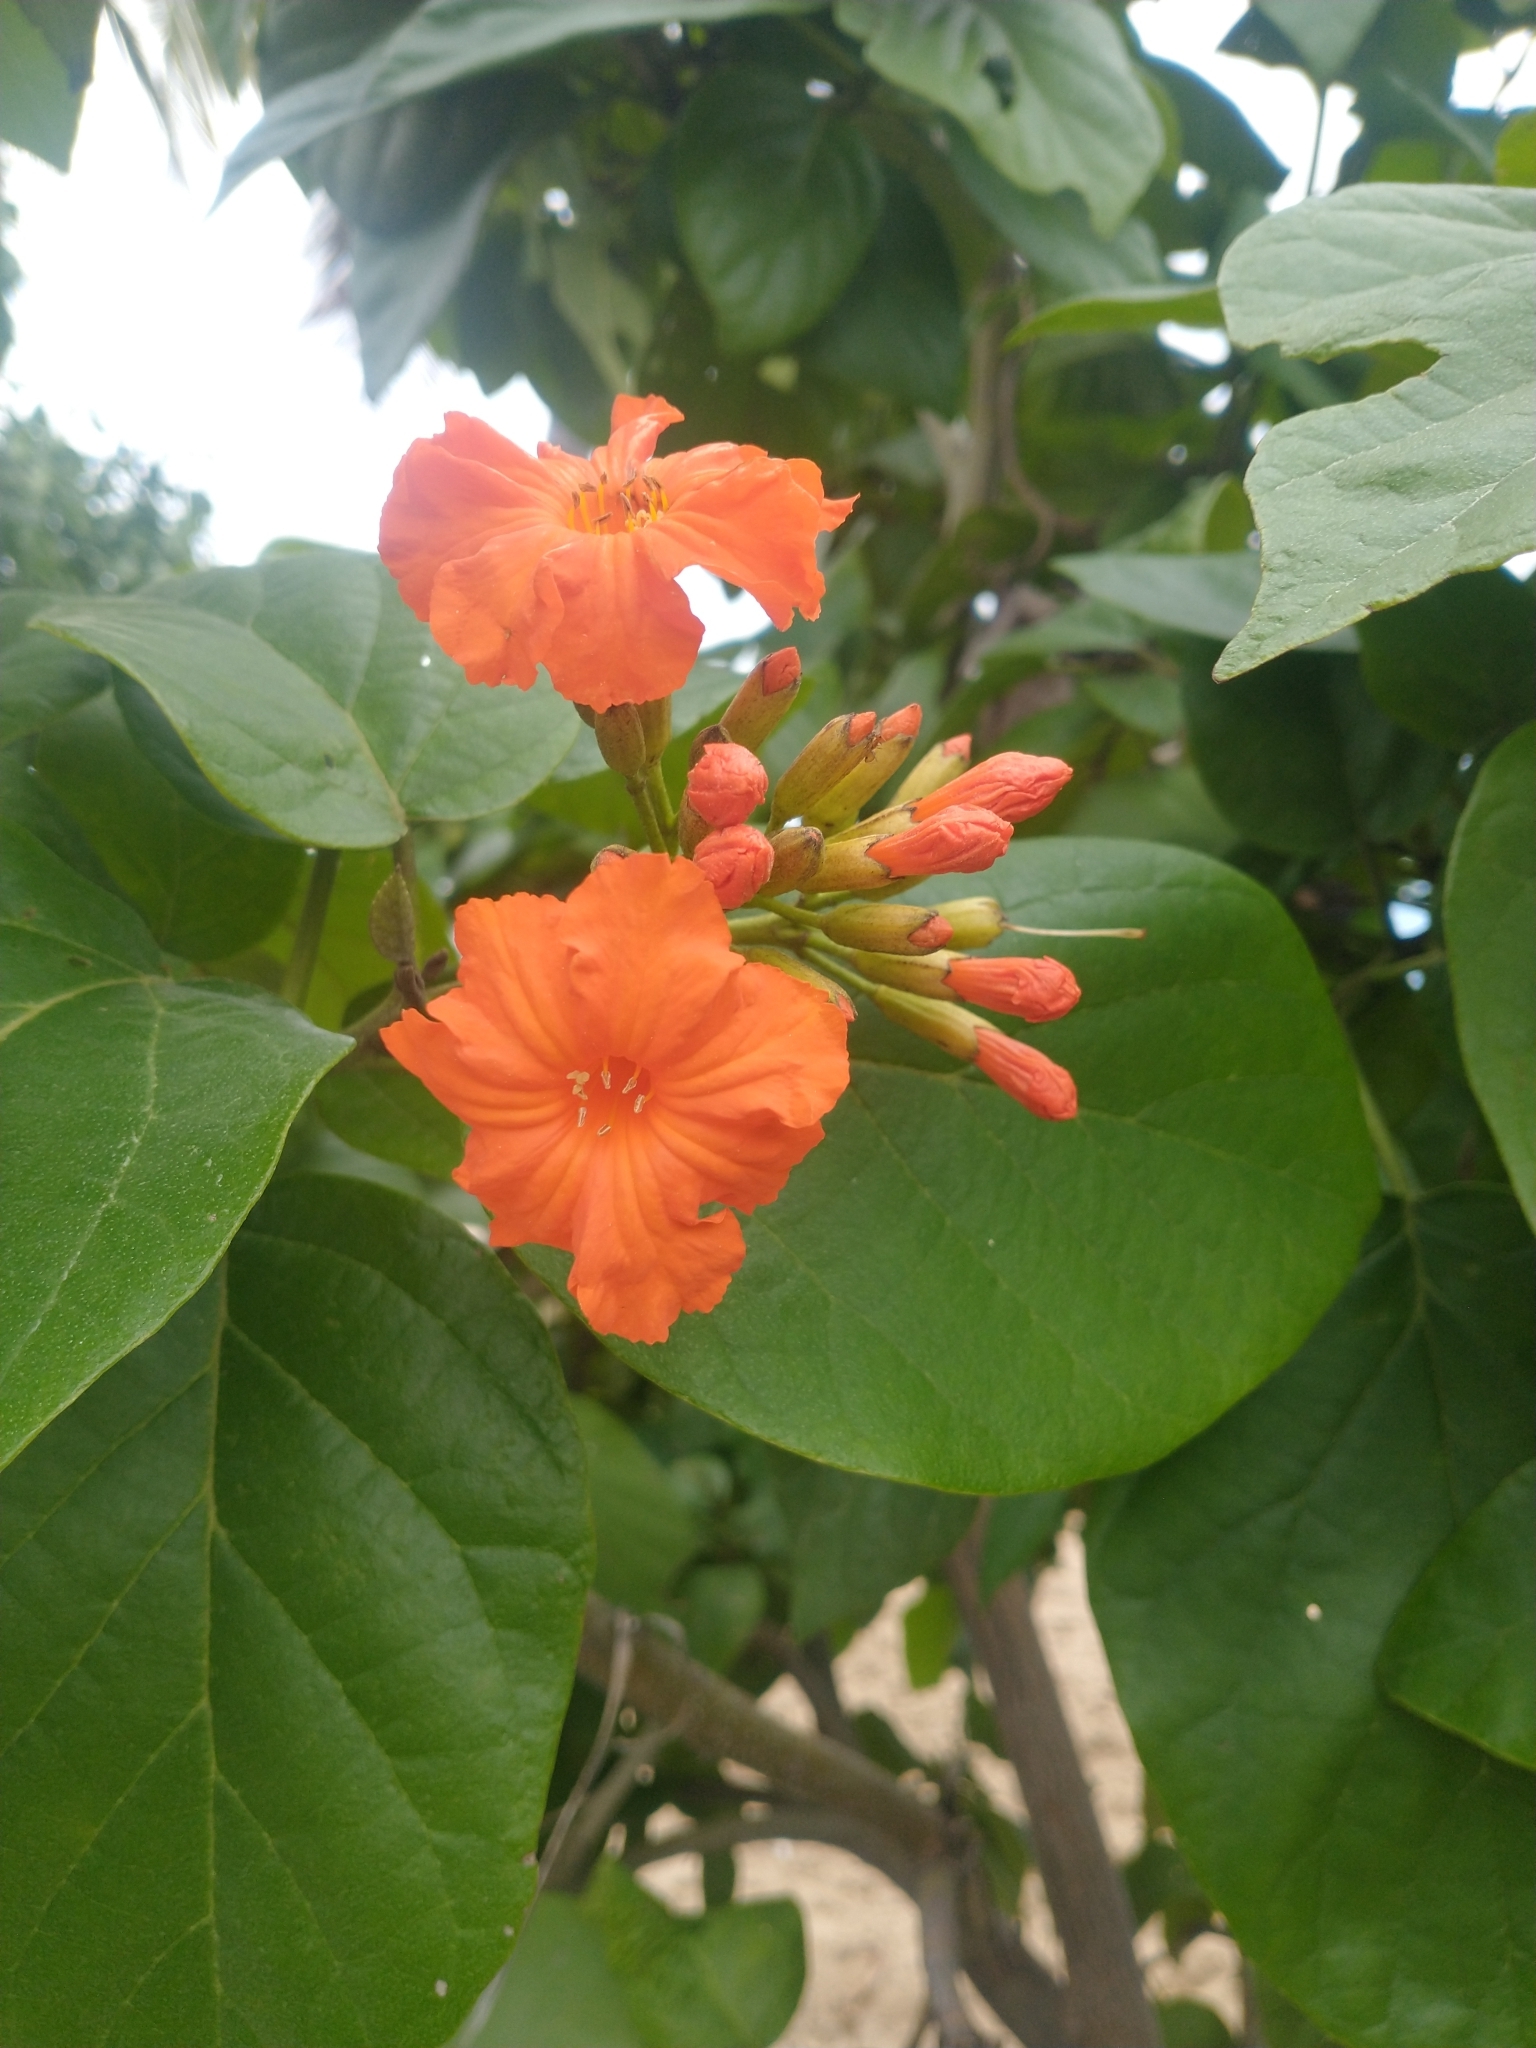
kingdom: Plantae
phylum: Tracheophyta
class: Magnoliopsida
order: Boraginales
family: Cordiaceae
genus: Cordia
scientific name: Cordia sebestena
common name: Largeleaf geigertree
